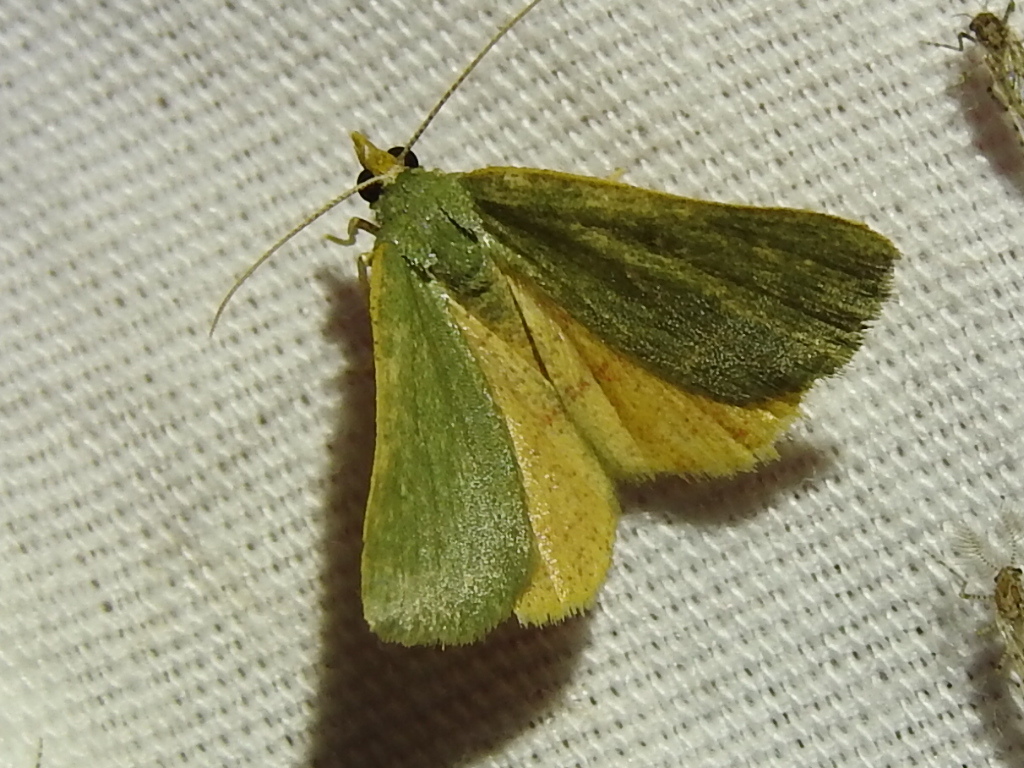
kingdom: Animalia
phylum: Arthropoda
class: Insecta
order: Lepidoptera
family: Geometridae
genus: Chloraspilates
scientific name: Chloraspilates bicoloraria
